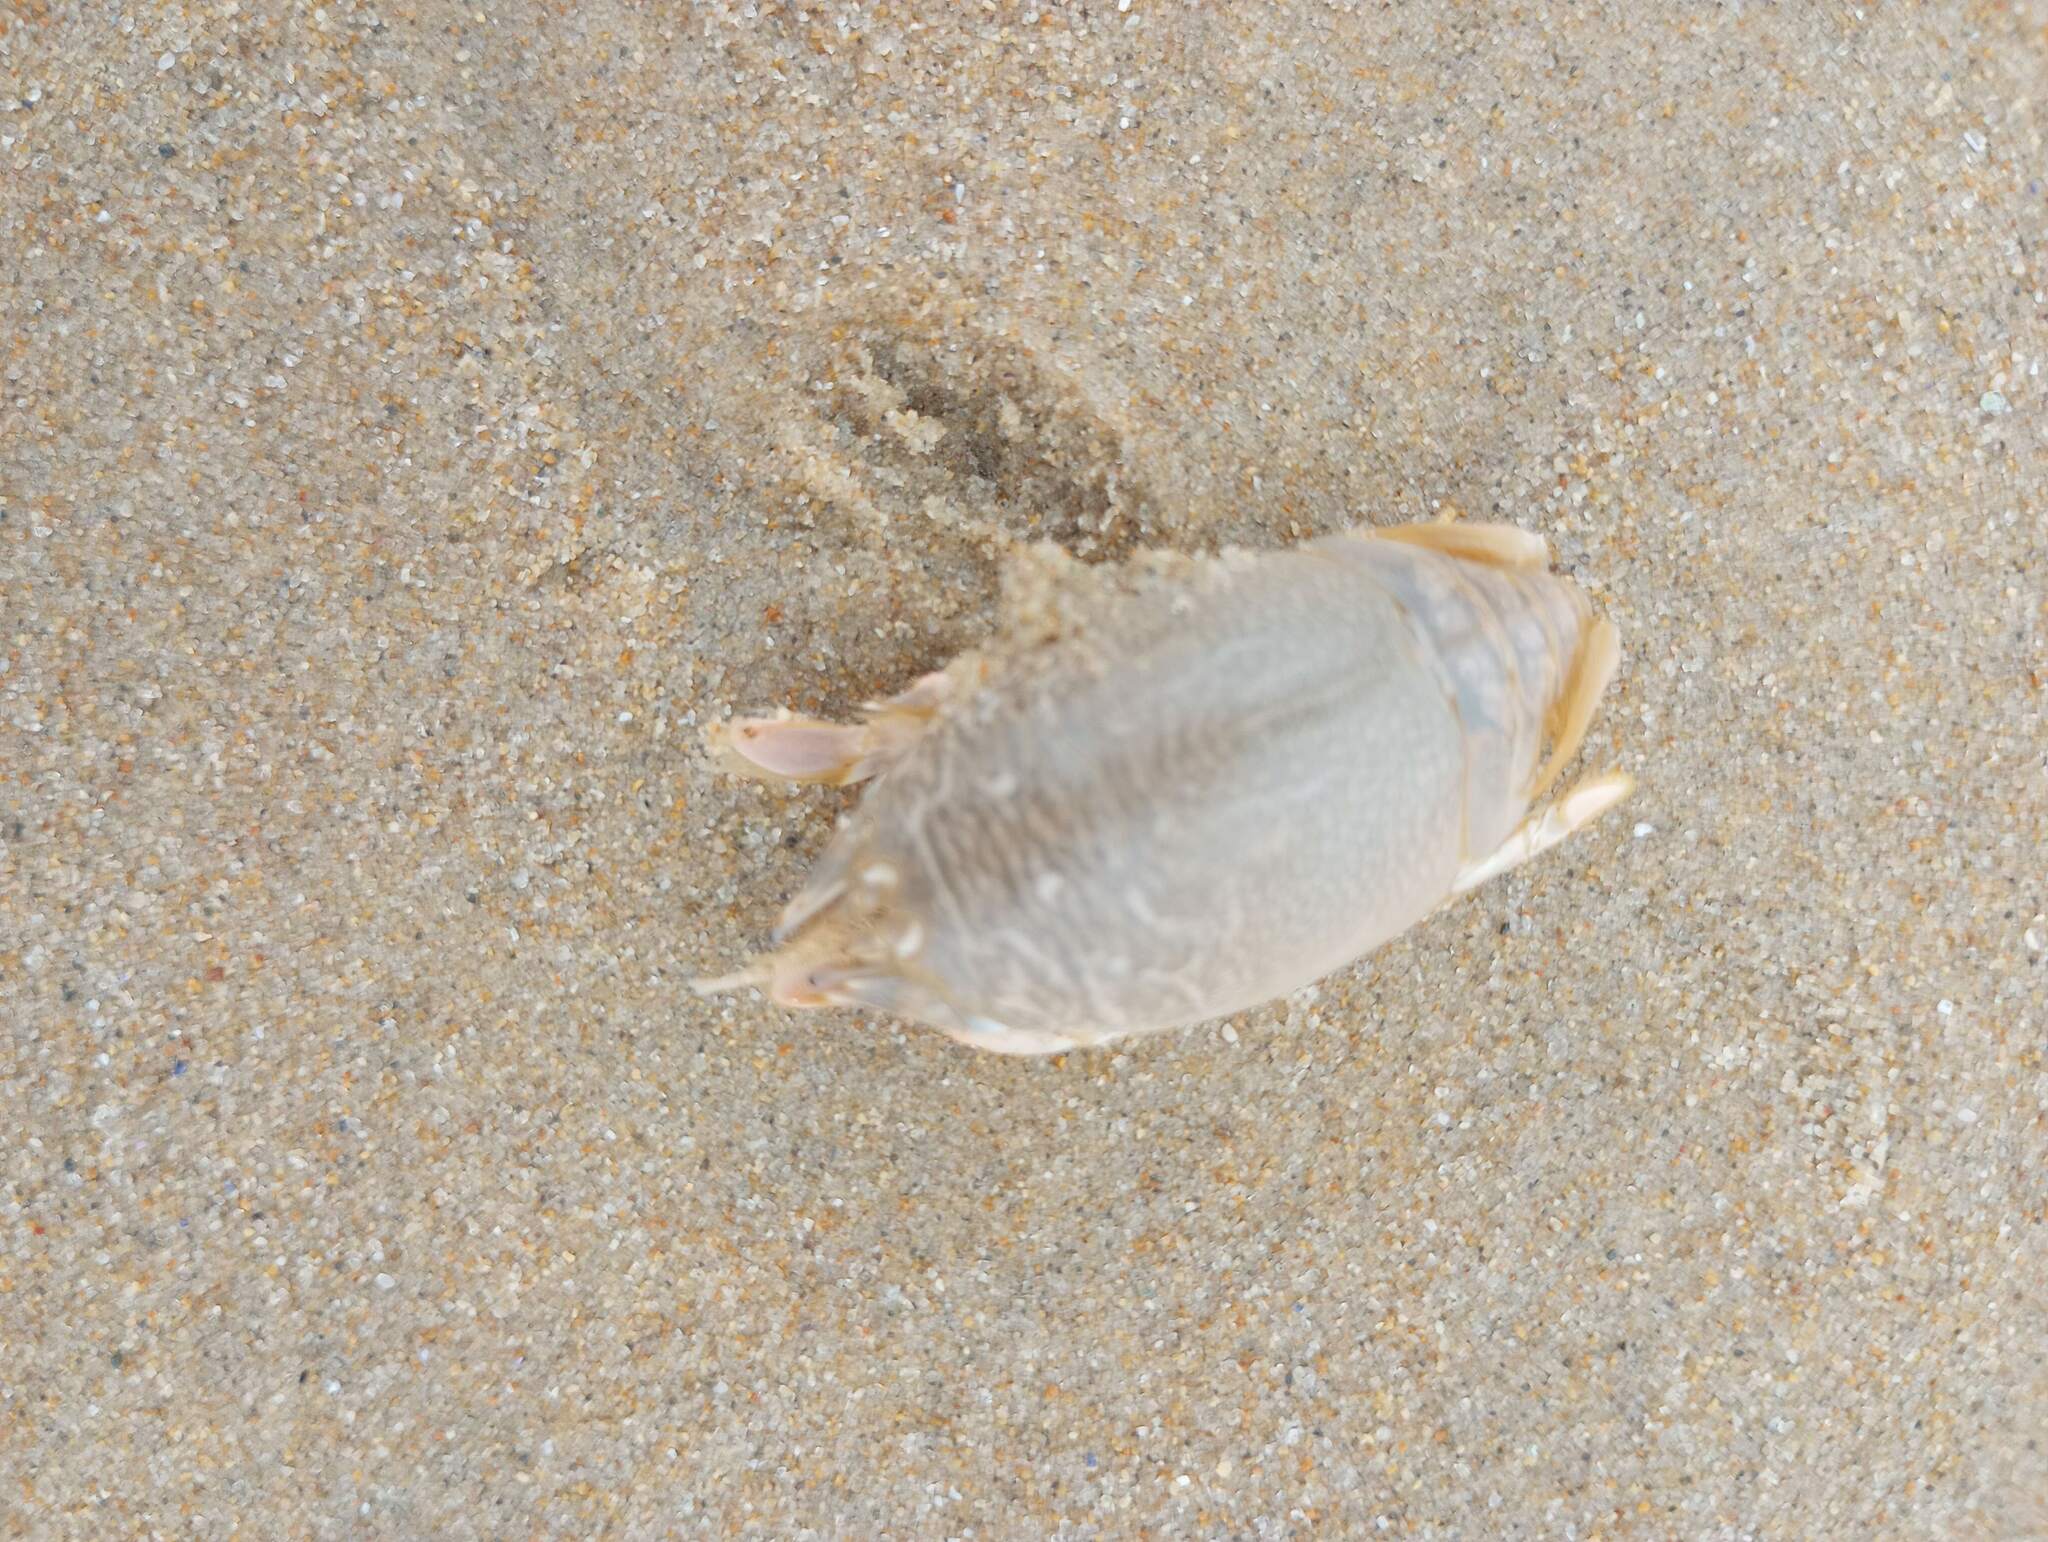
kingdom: Animalia
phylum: Arthropoda
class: Malacostraca
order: Decapoda
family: Hippidae
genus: Emerita
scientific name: Emerita analoga
